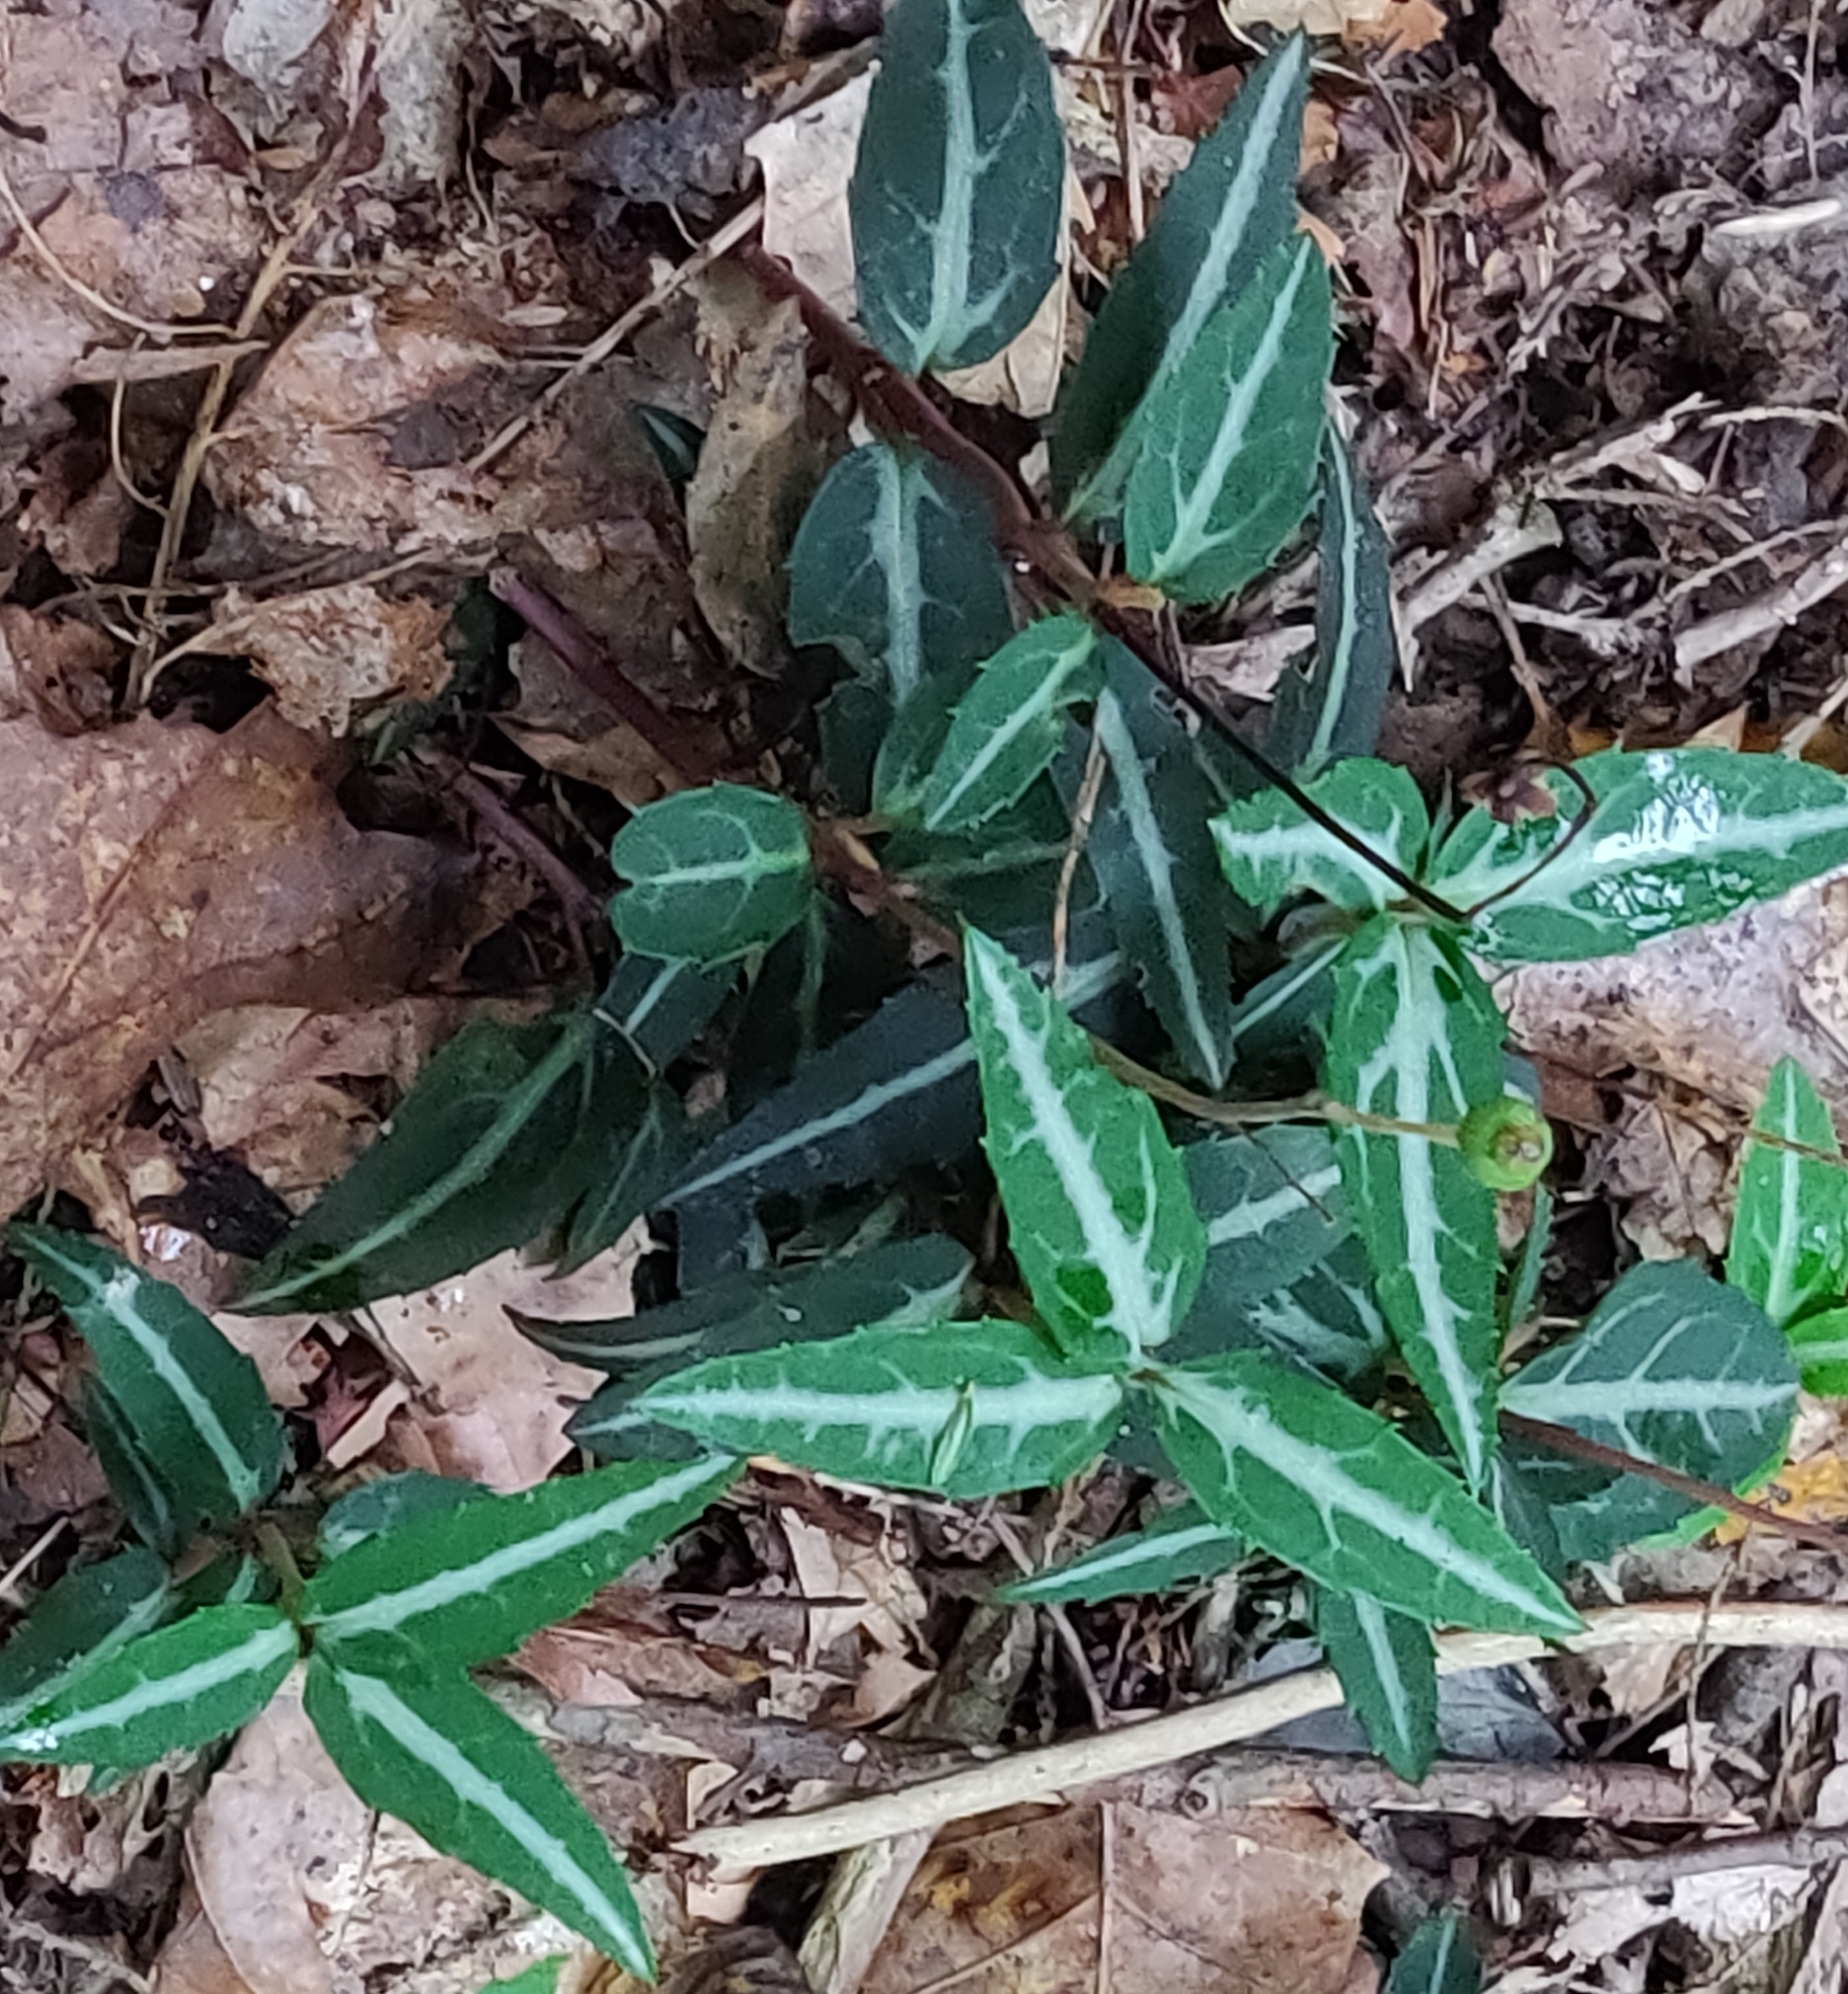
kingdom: Plantae
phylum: Tracheophyta
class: Magnoliopsida
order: Ericales
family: Ericaceae
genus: Chimaphila
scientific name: Chimaphila maculata
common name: Spotted pipsissewa
